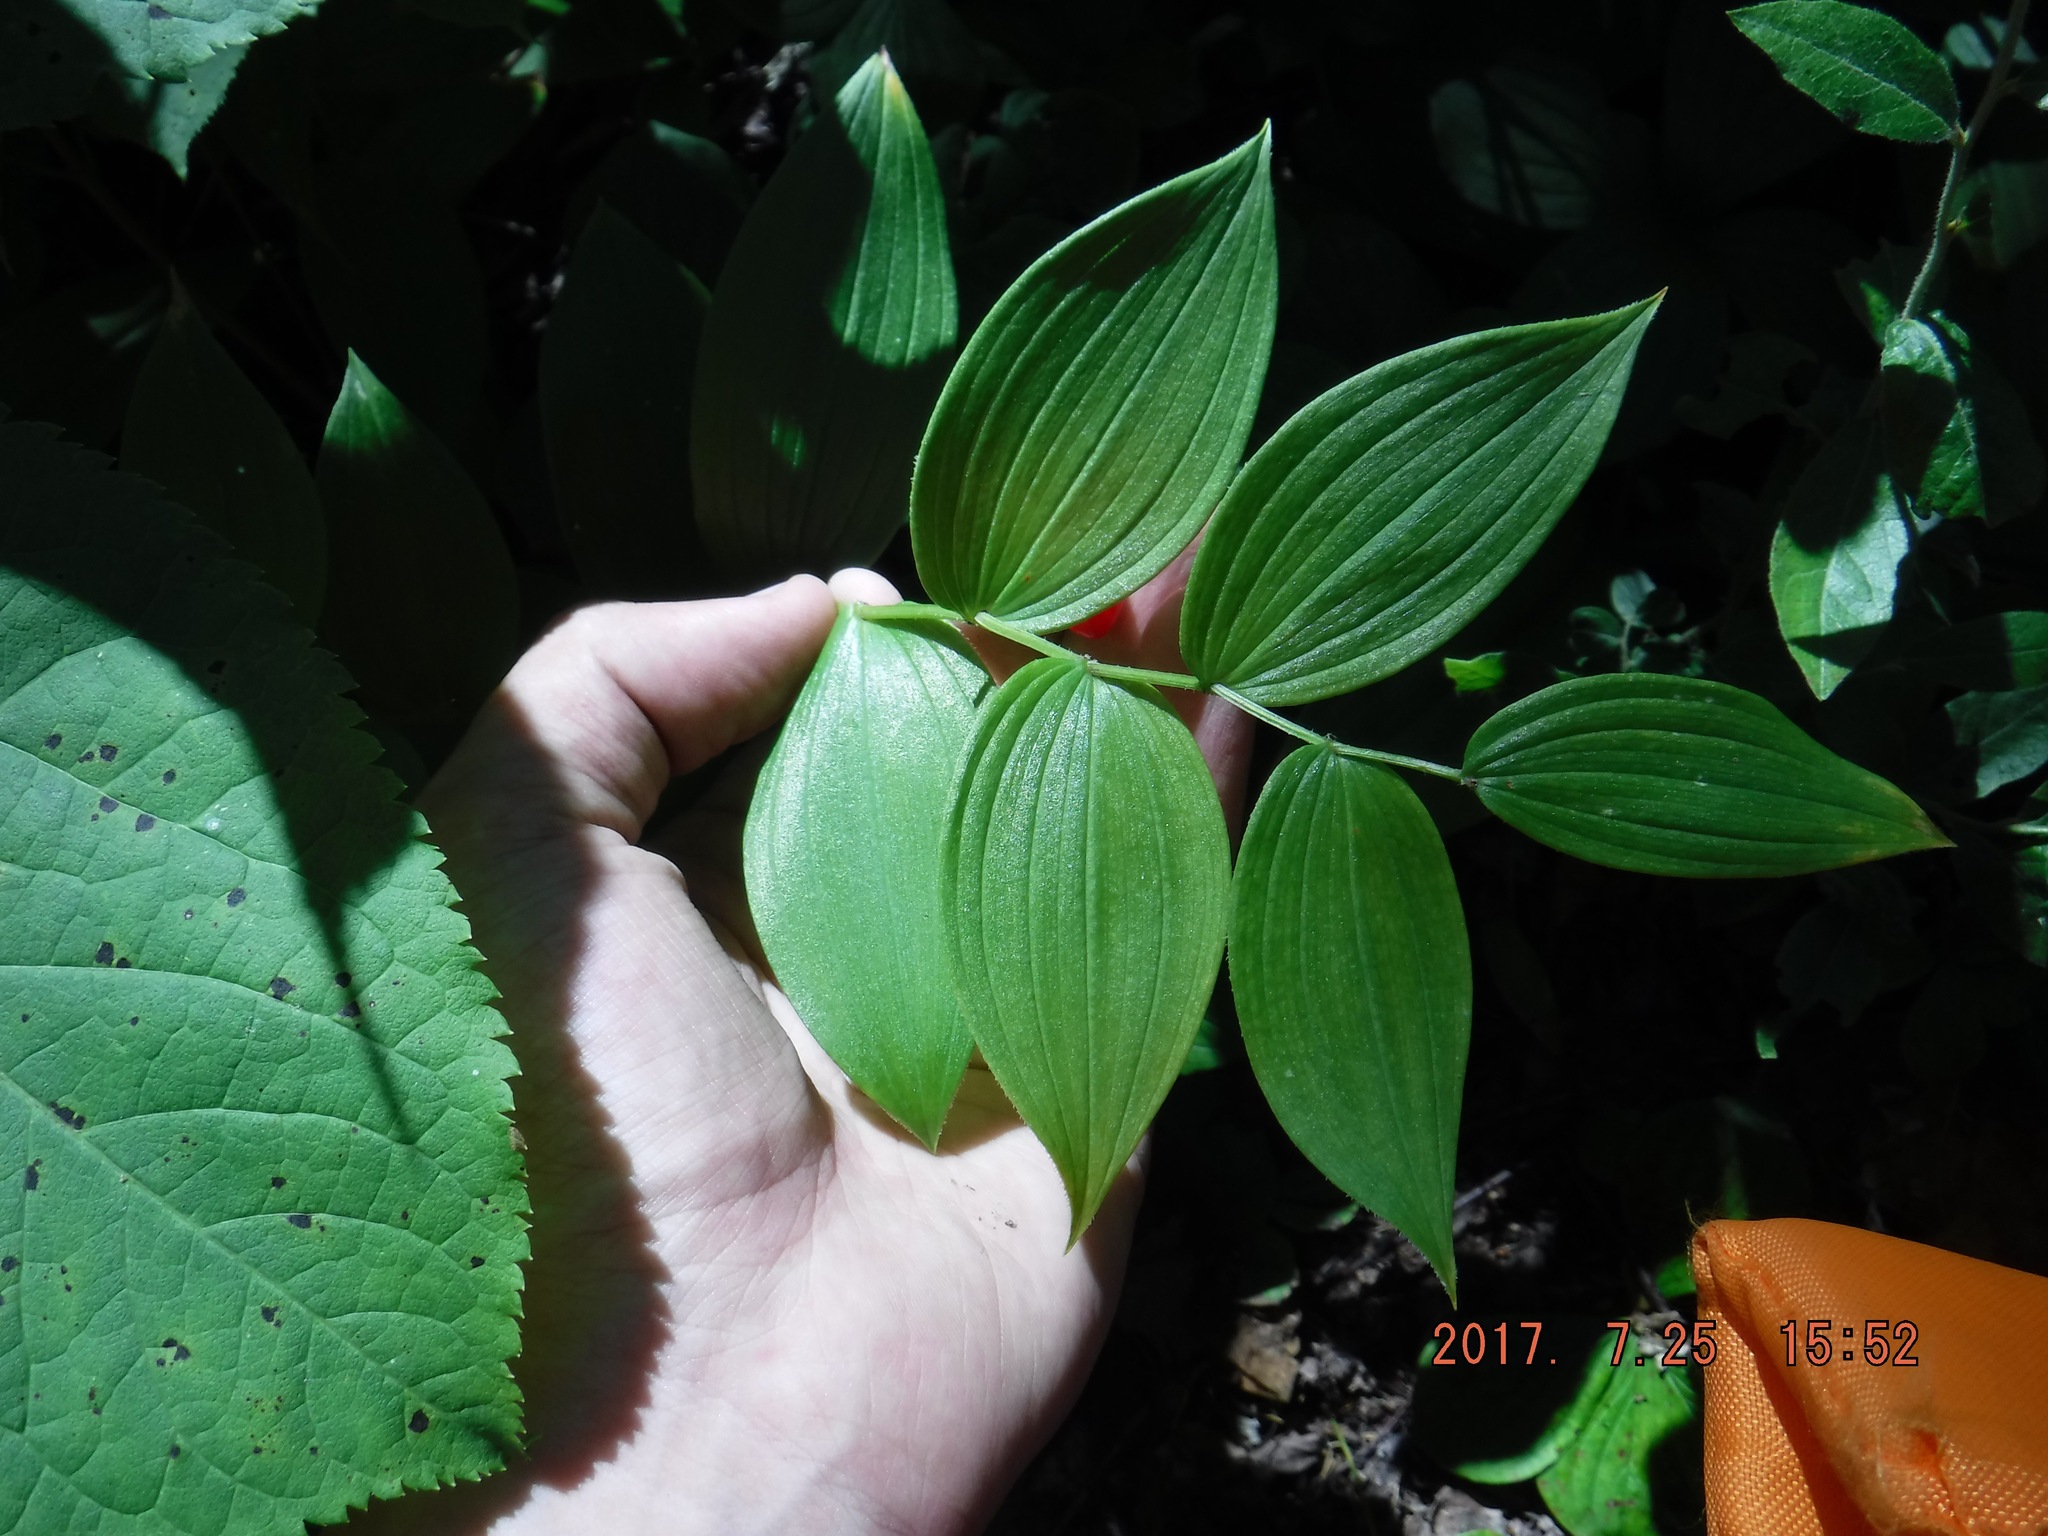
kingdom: Plantae
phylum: Tracheophyta
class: Liliopsida
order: Liliales
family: Liliaceae
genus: Streptopus
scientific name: Streptopus lanceolatus
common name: Rose mandarin
